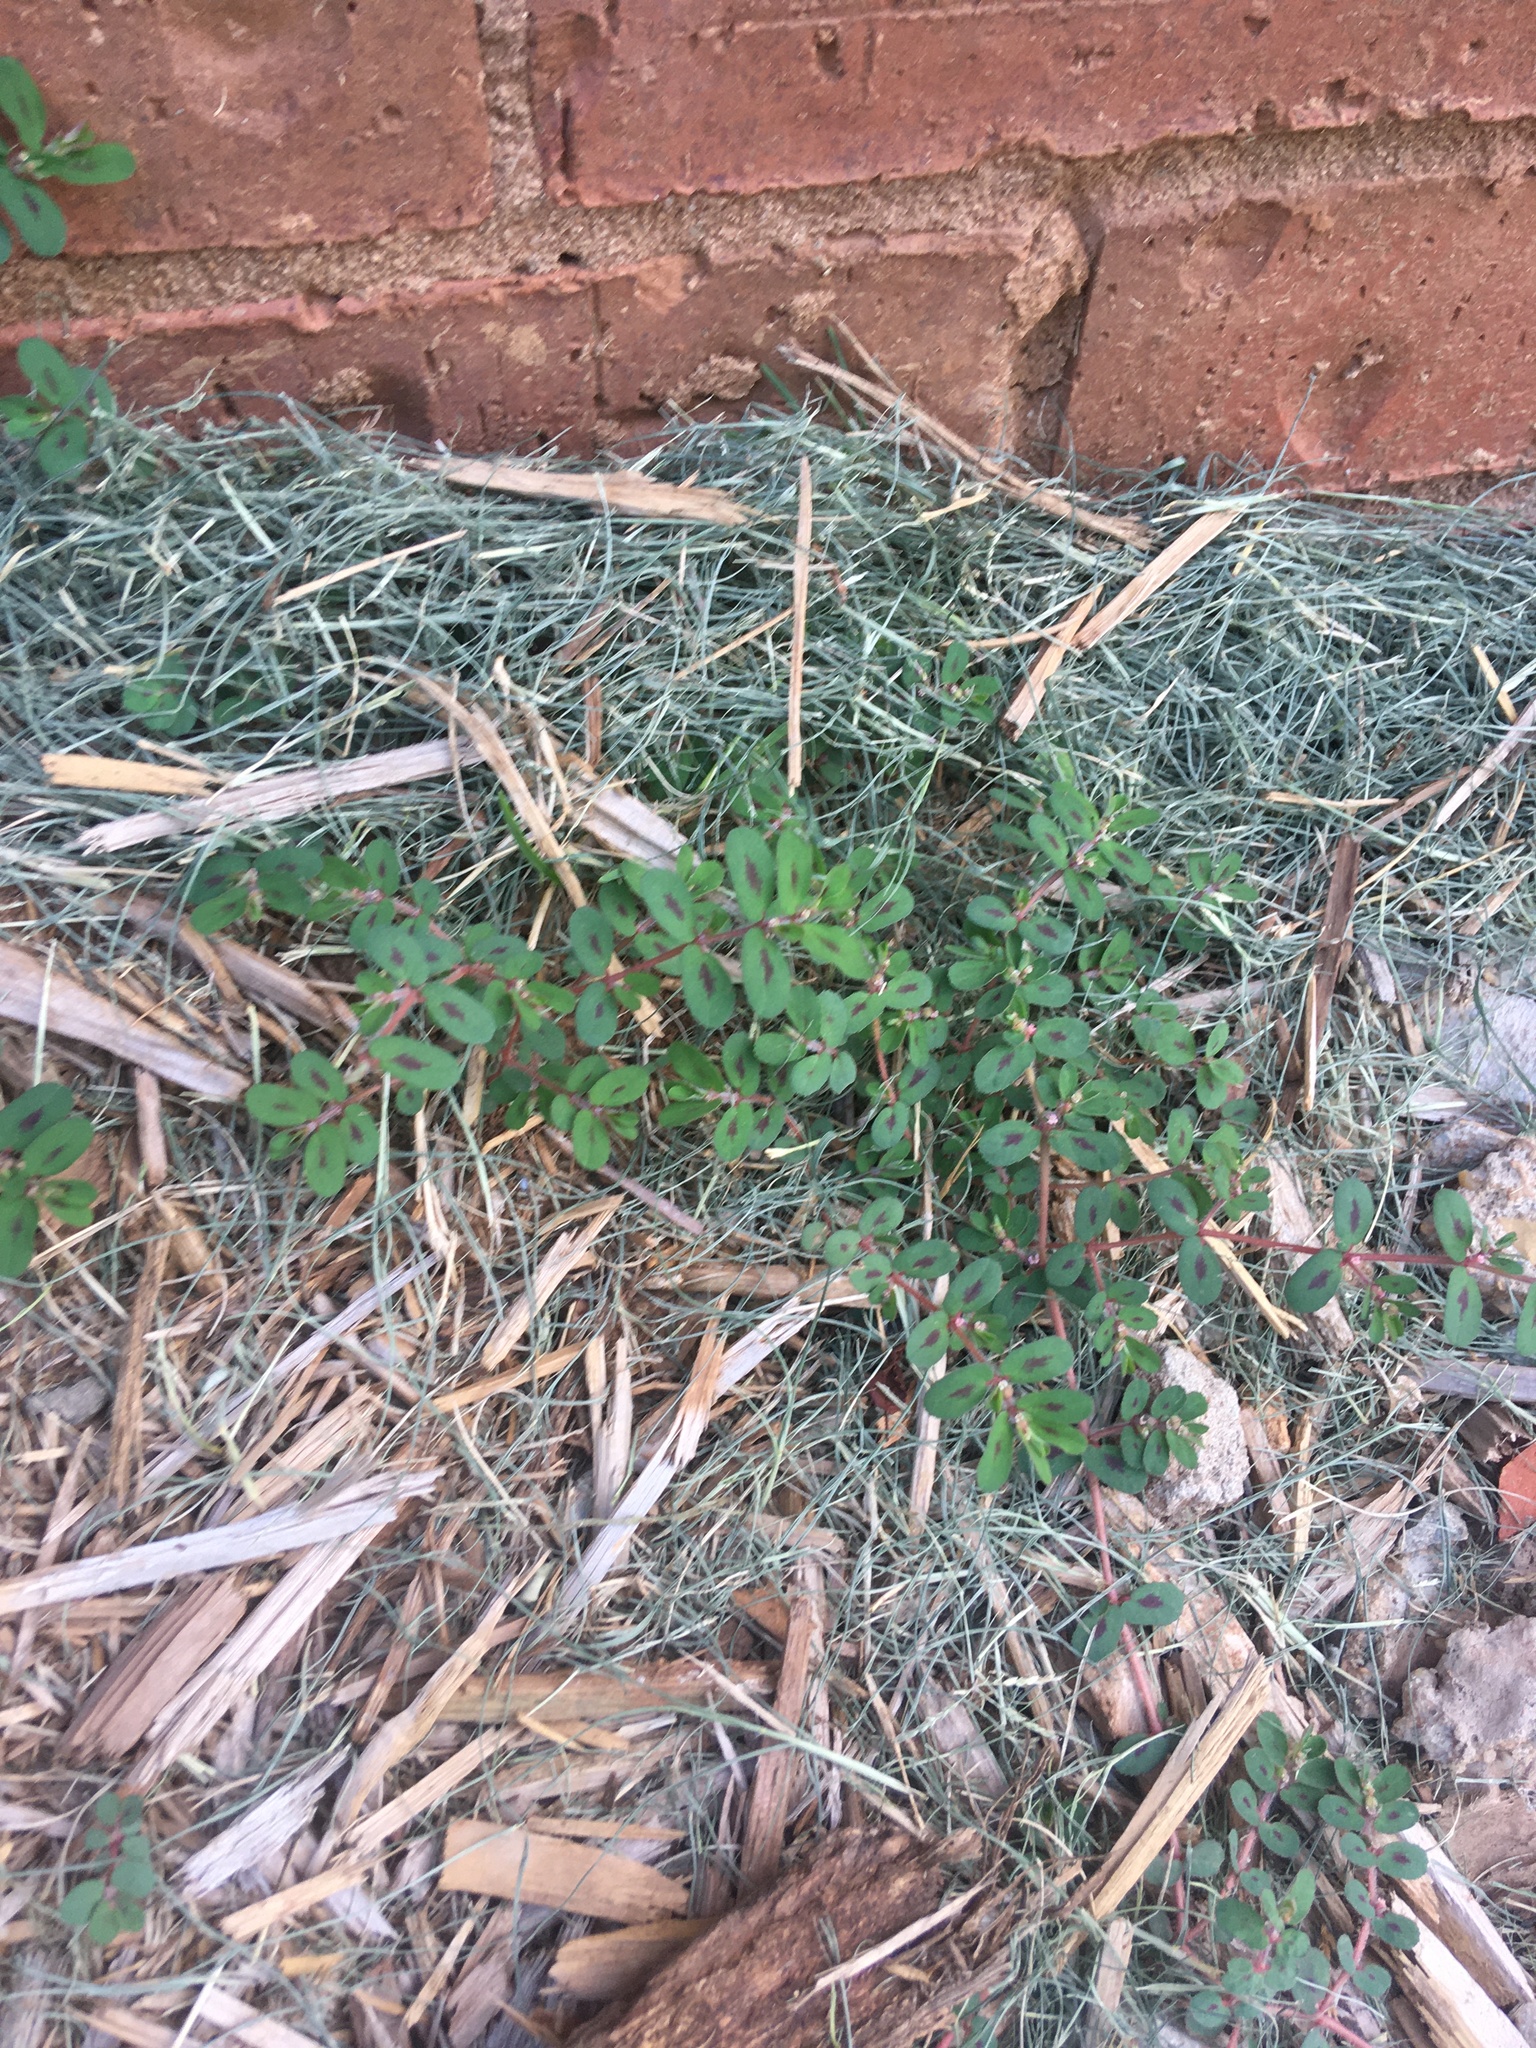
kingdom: Plantae
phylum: Tracheophyta
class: Magnoliopsida
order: Malpighiales
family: Euphorbiaceae
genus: Euphorbia
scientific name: Euphorbia maculata
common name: Spotted spurge
